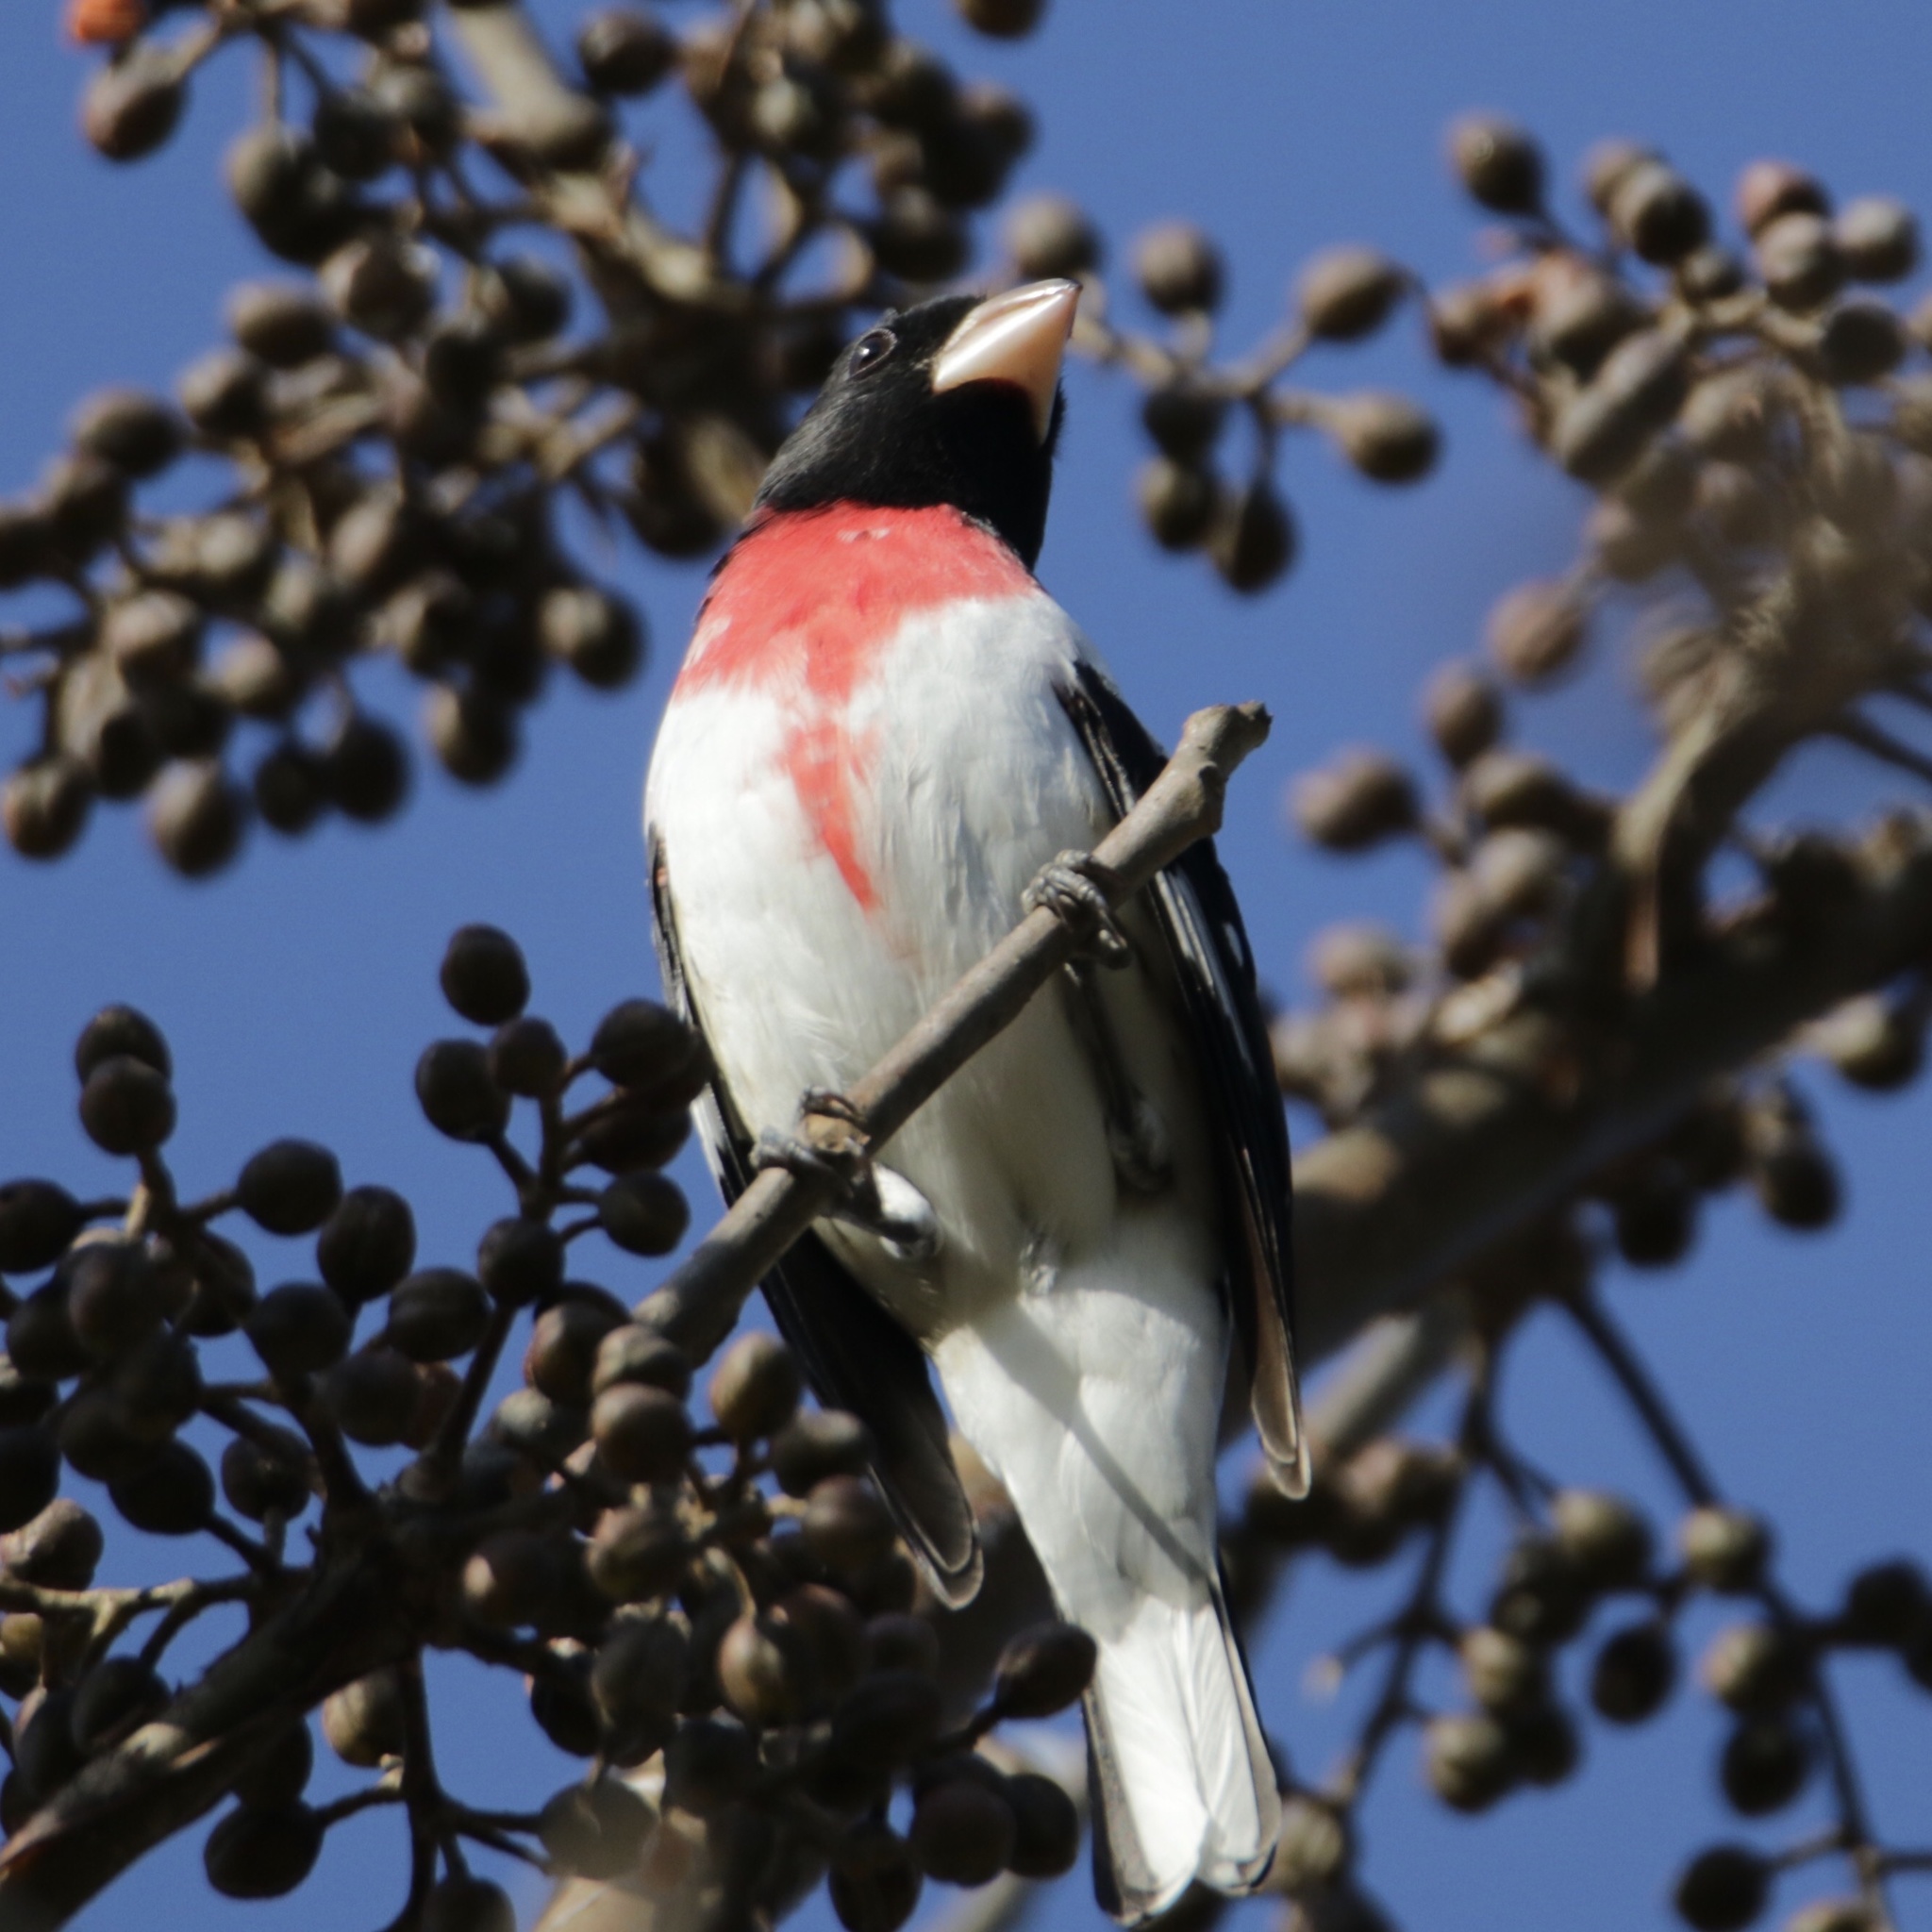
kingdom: Animalia
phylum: Chordata
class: Aves
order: Passeriformes
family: Cardinalidae
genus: Pheucticus
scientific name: Pheucticus ludovicianus
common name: Rose-breasted grosbeak
